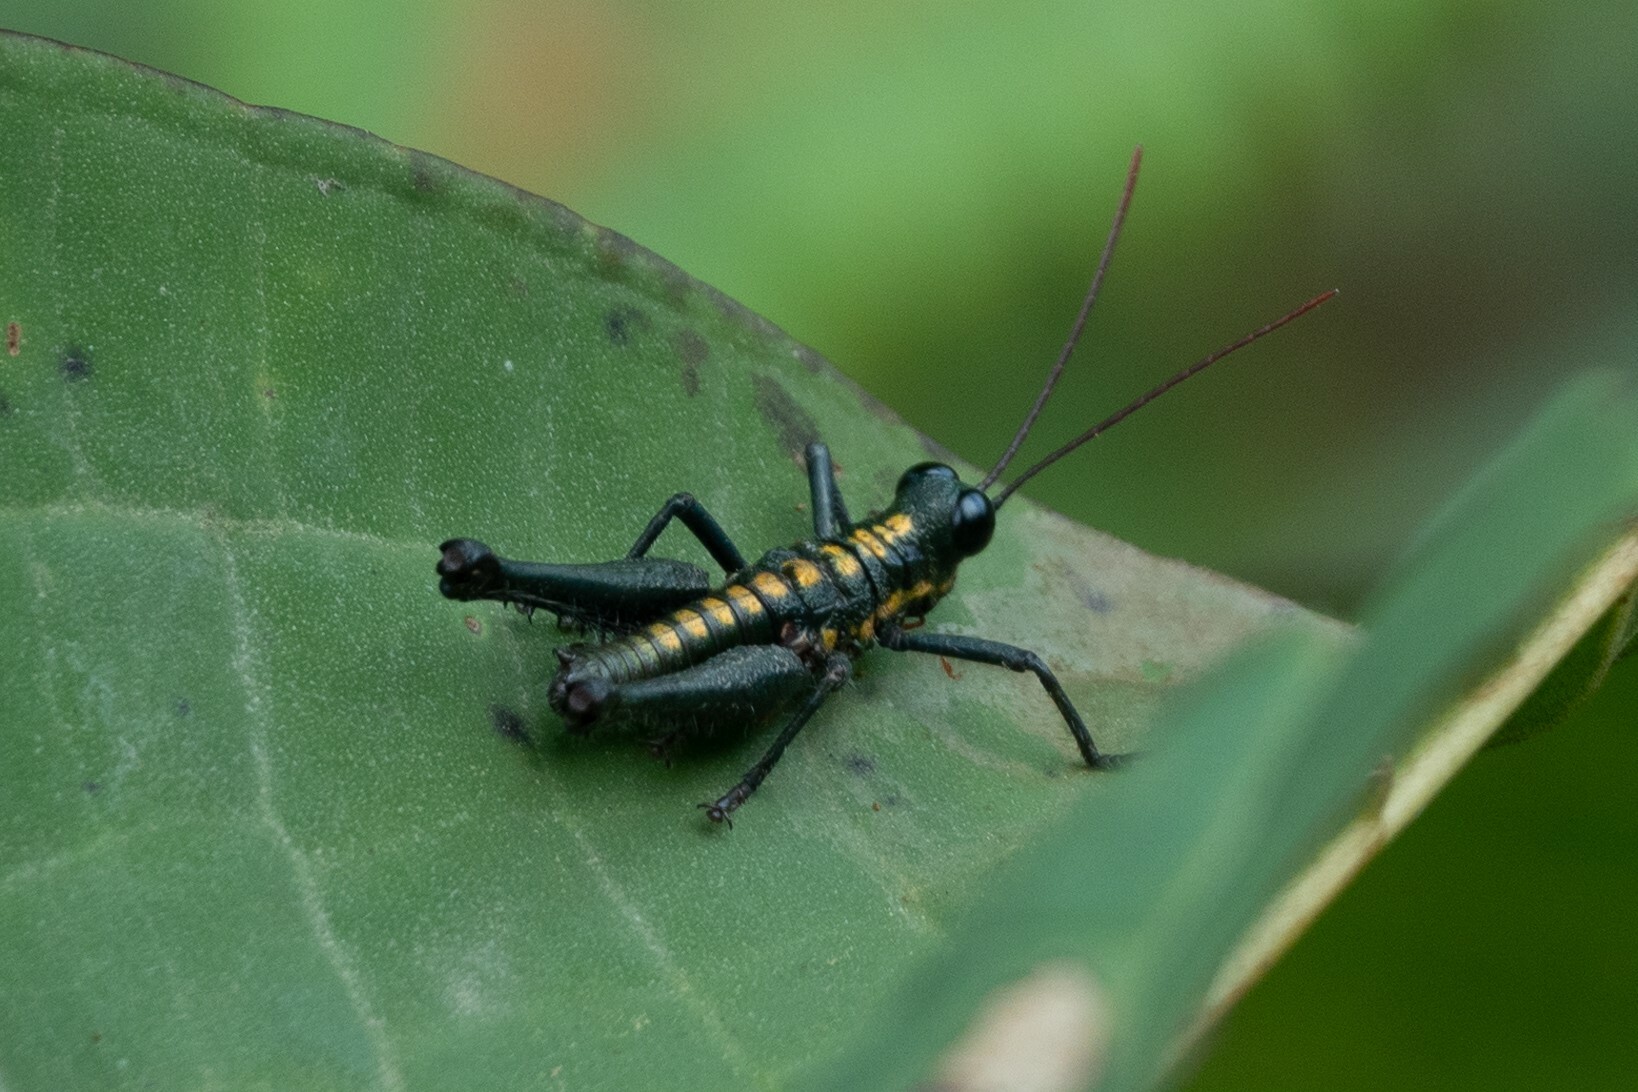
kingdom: Animalia
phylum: Arthropoda
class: Insecta
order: Orthoptera
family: Acrididae
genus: Trichopaon
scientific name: Trichopaon tatei
